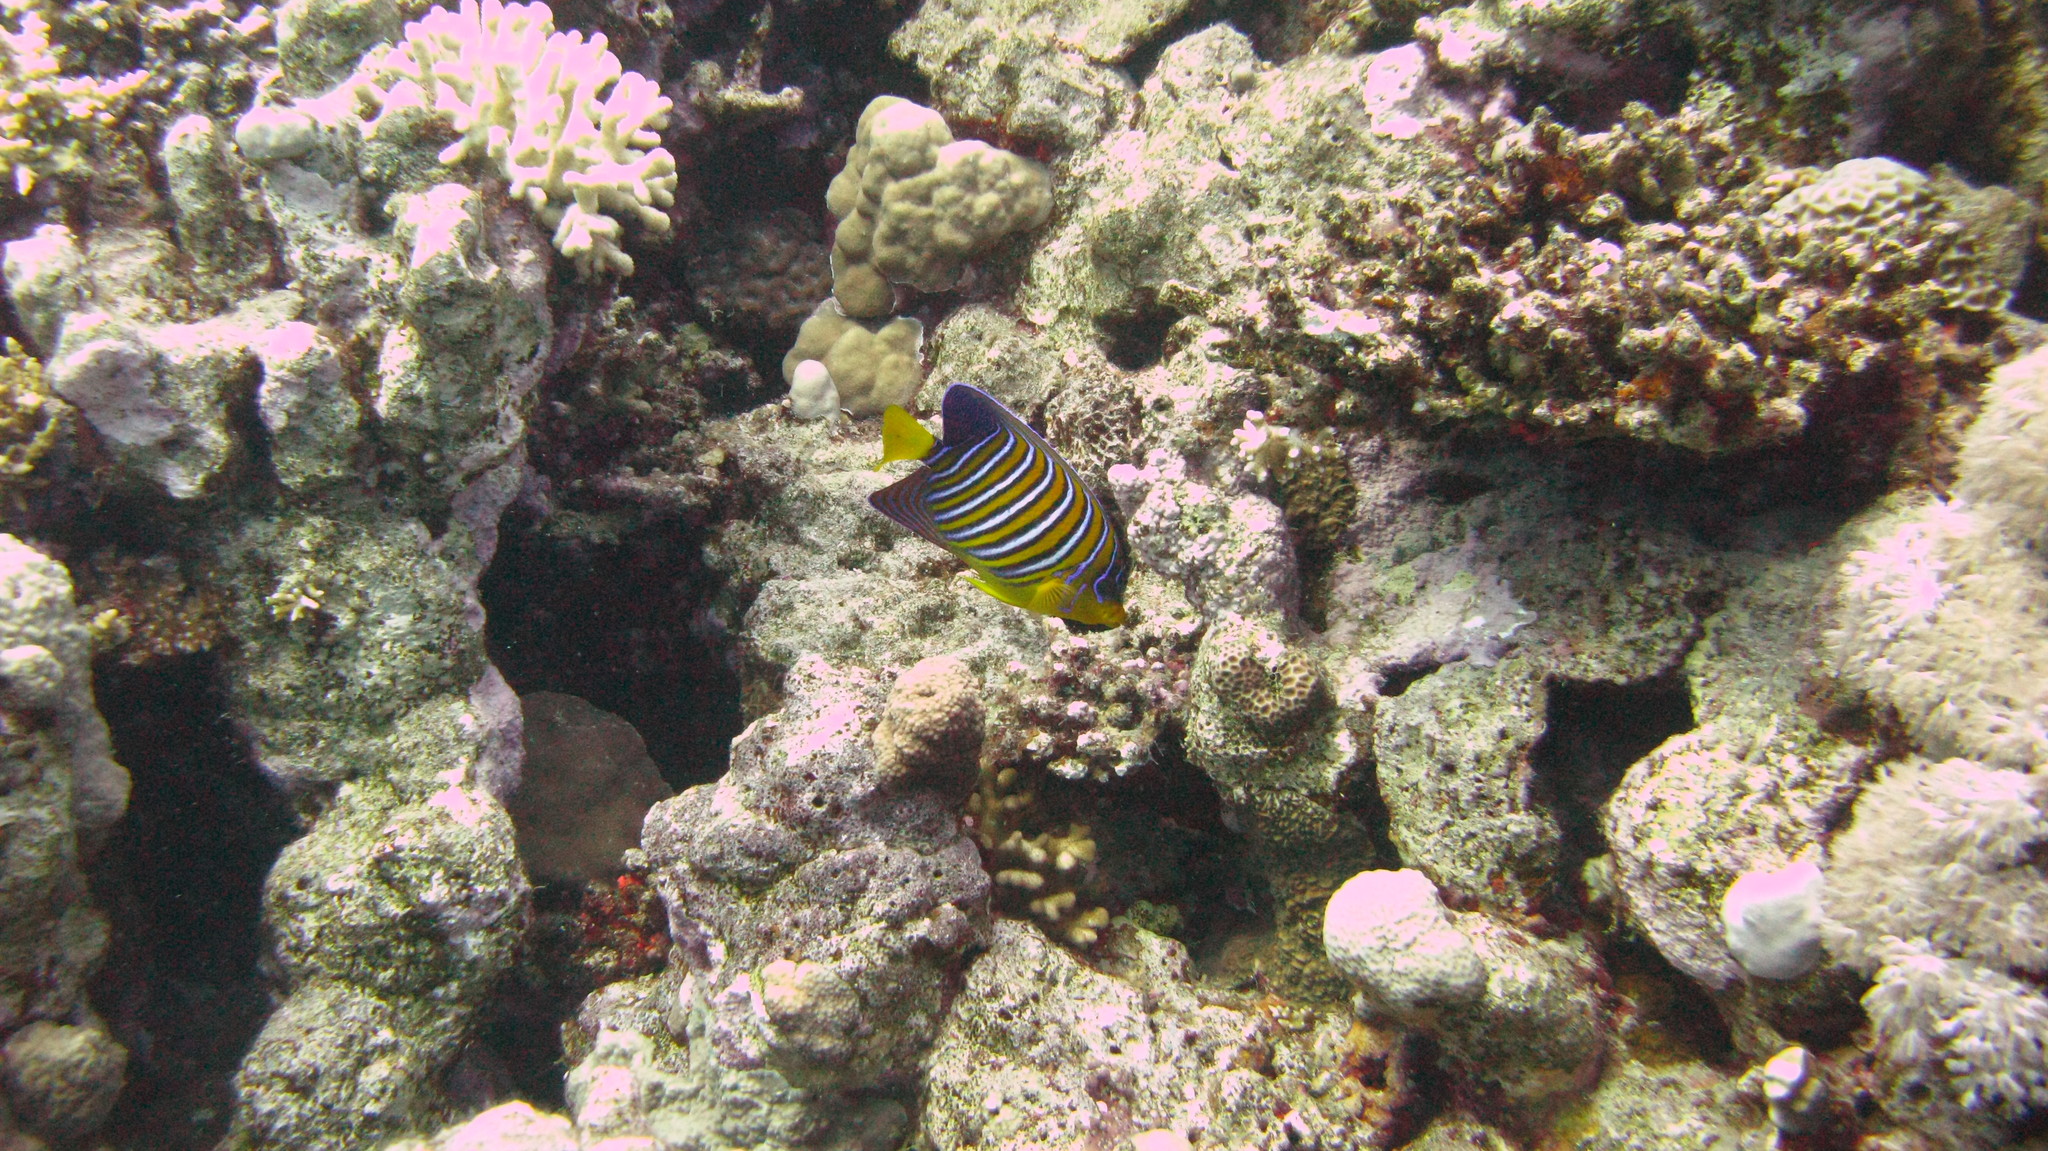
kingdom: Animalia
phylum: Chordata
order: Perciformes
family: Pomacanthidae
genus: Pygoplites
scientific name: Pygoplites diacanthus
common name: Regal angelfish
